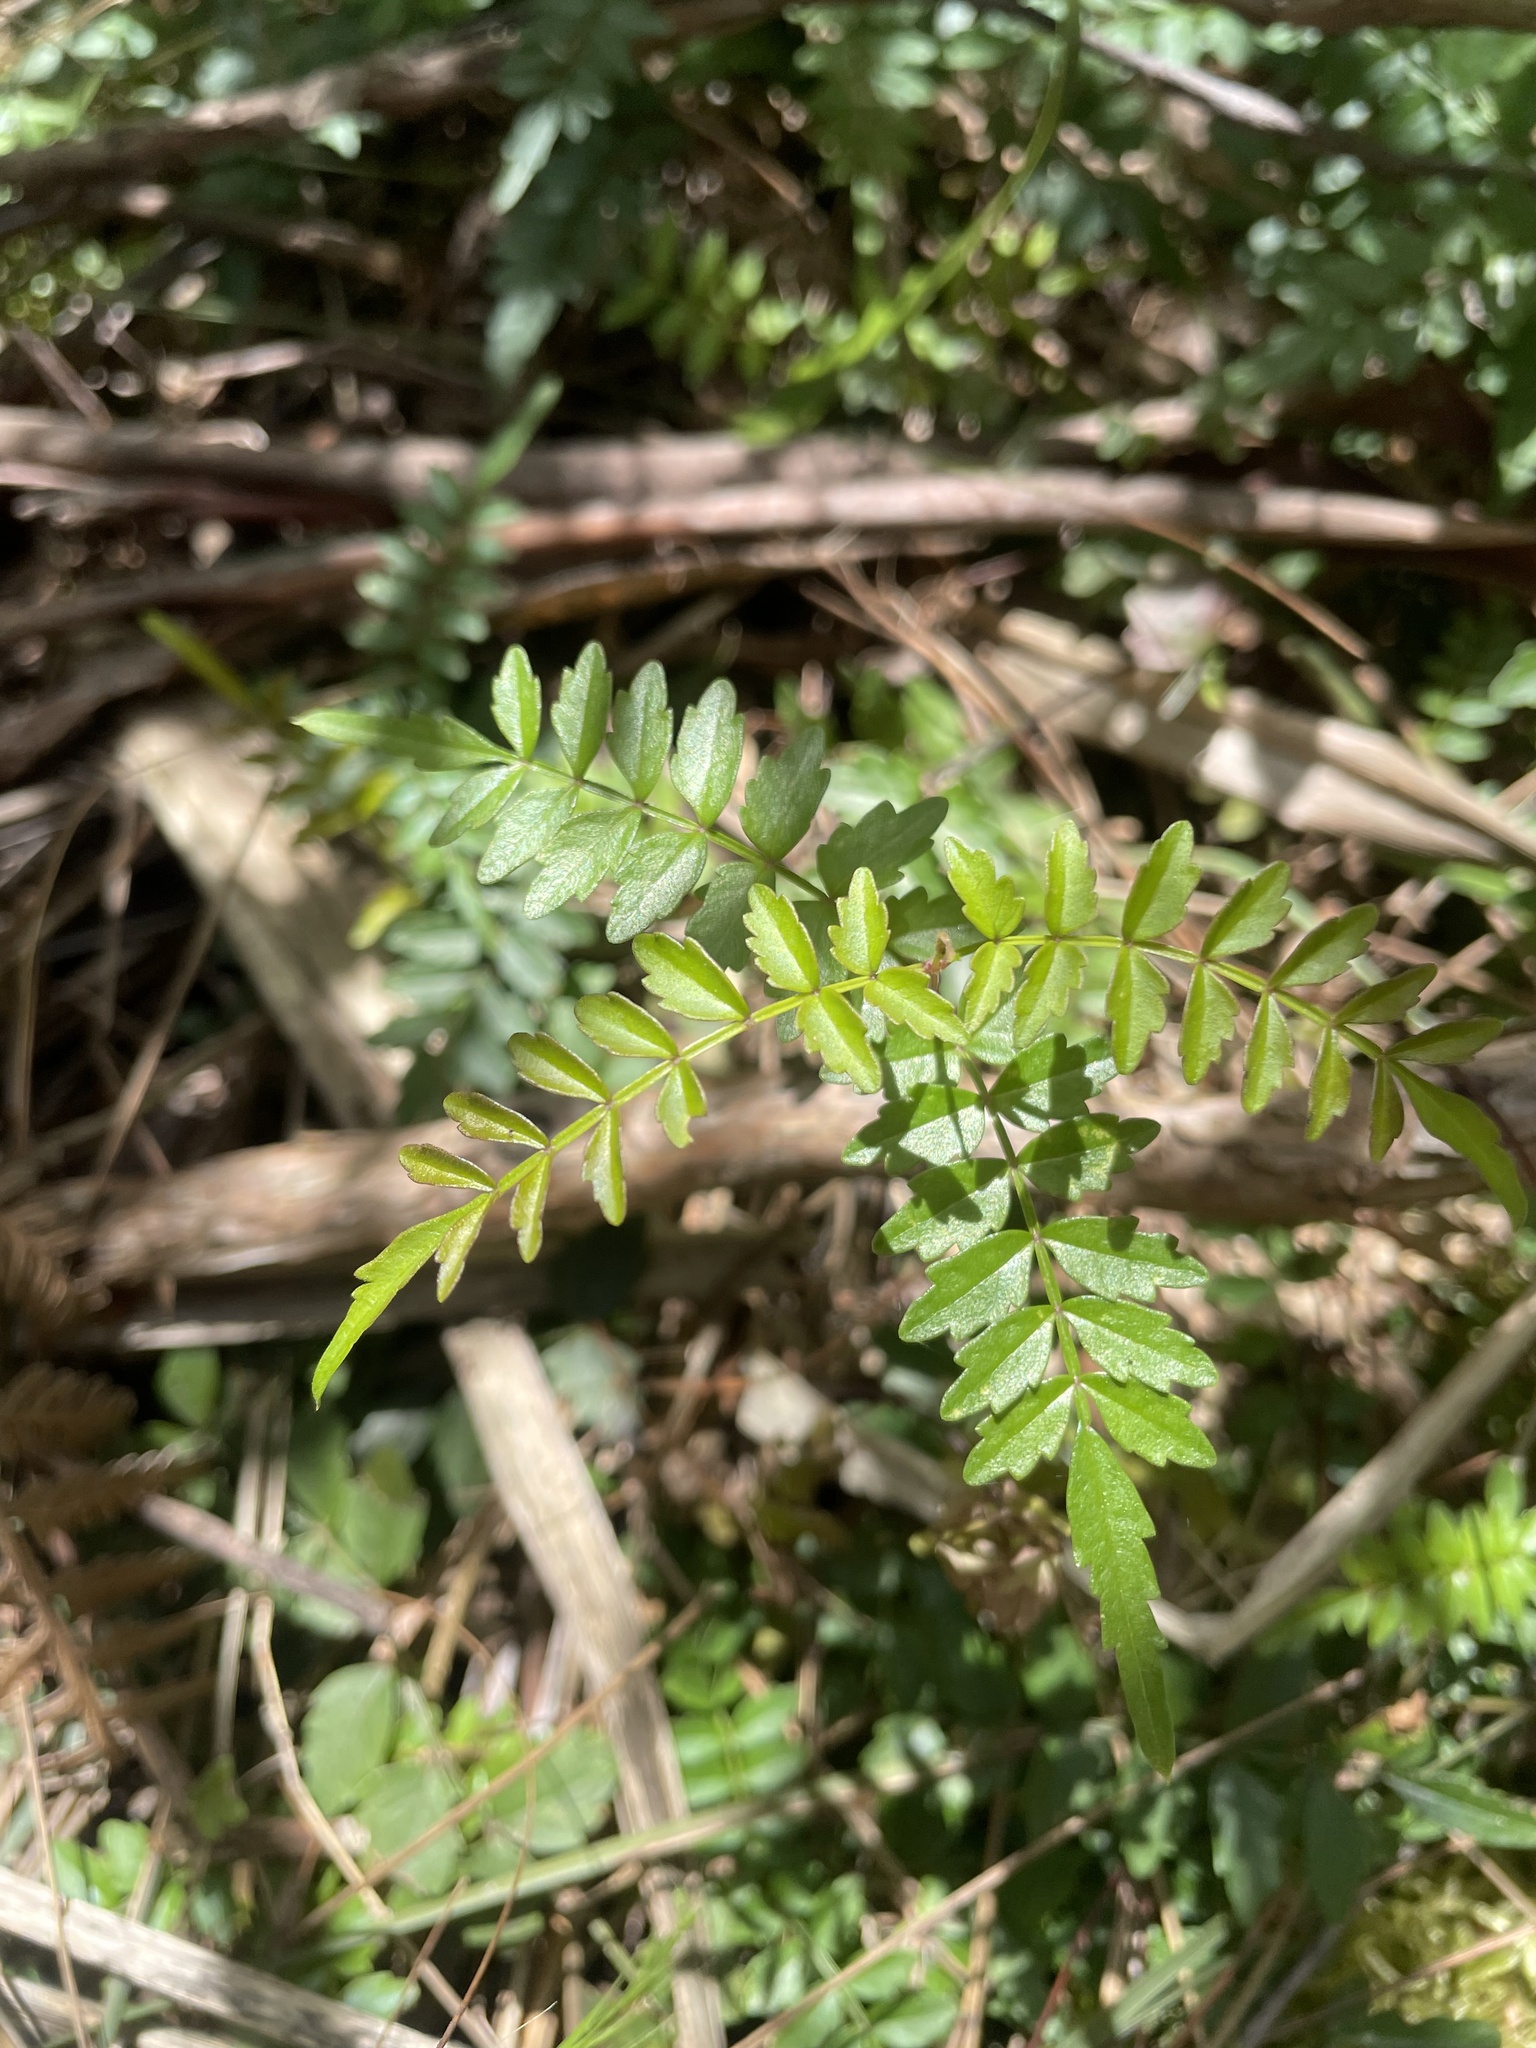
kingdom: Plantae
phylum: Tracheophyta
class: Magnoliopsida
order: Lamiales
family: Bignoniaceae
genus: Pandorea
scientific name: Pandorea pandorana
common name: Wonga-wonga-vine
